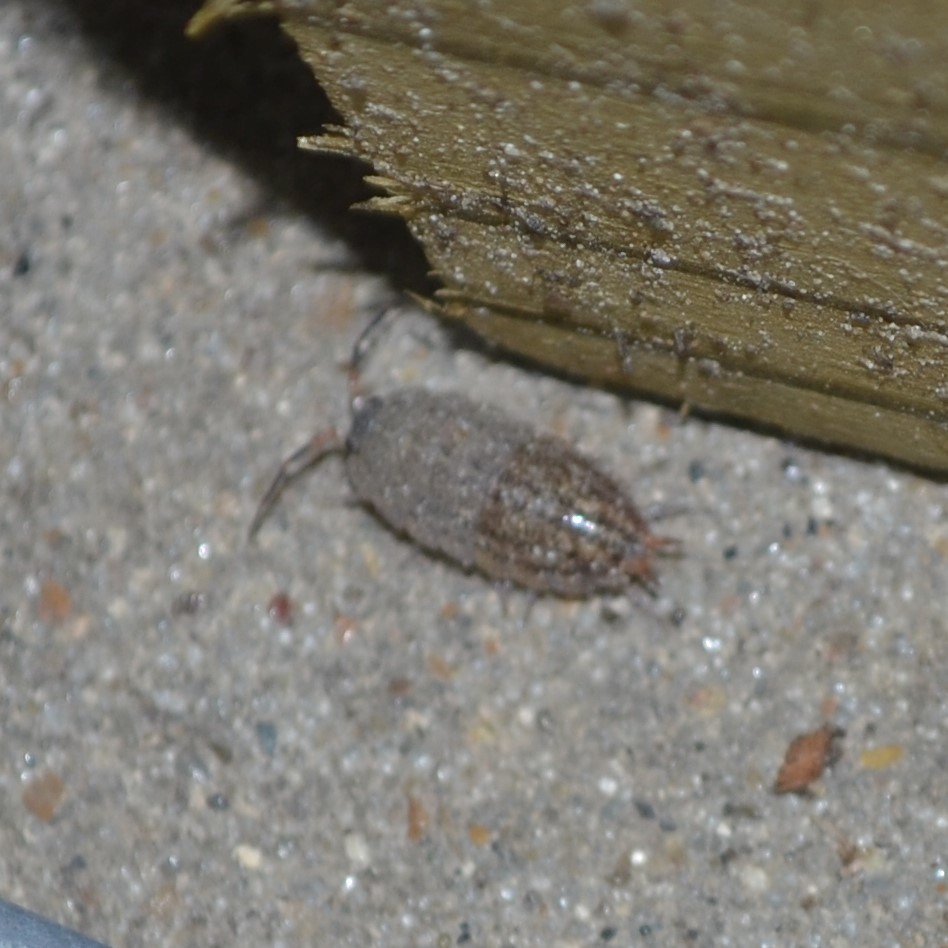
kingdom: Animalia
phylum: Arthropoda
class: Malacostraca
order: Isopoda
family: Porcellionidae
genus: Porcellionides
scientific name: Porcellionides virgatus
